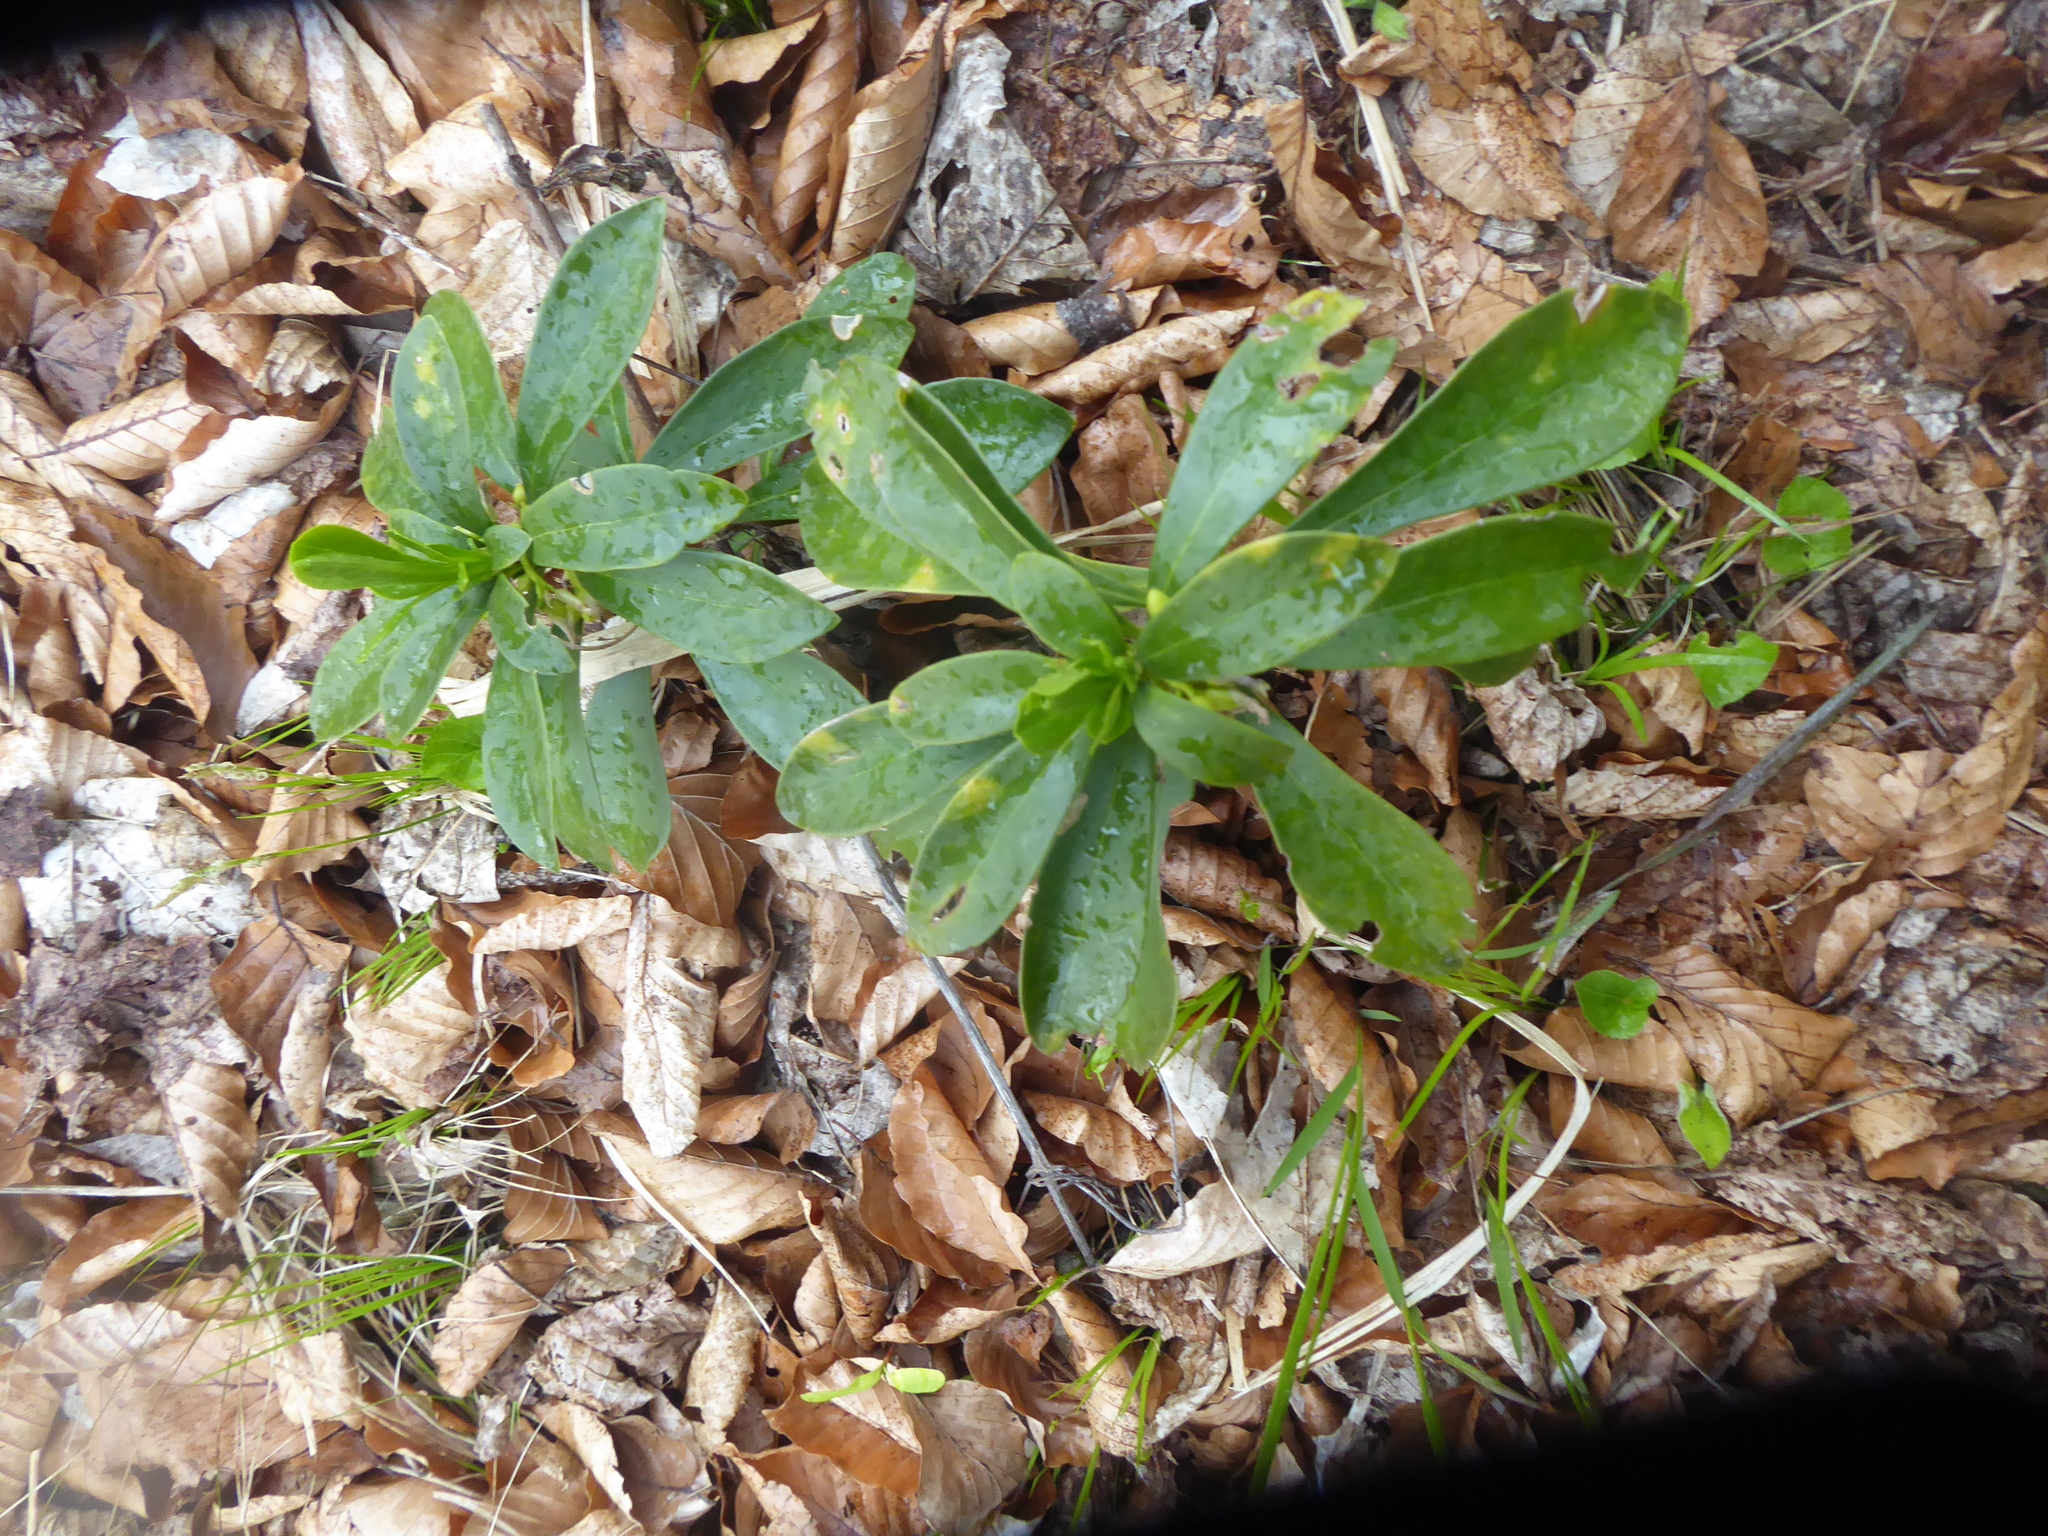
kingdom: Plantae
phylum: Tracheophyta
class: Magnoliopsida
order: Malpighiales
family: Euphorbiaceae
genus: Euphorbia
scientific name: Euphorbia amygdaloides
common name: Wood spurge
